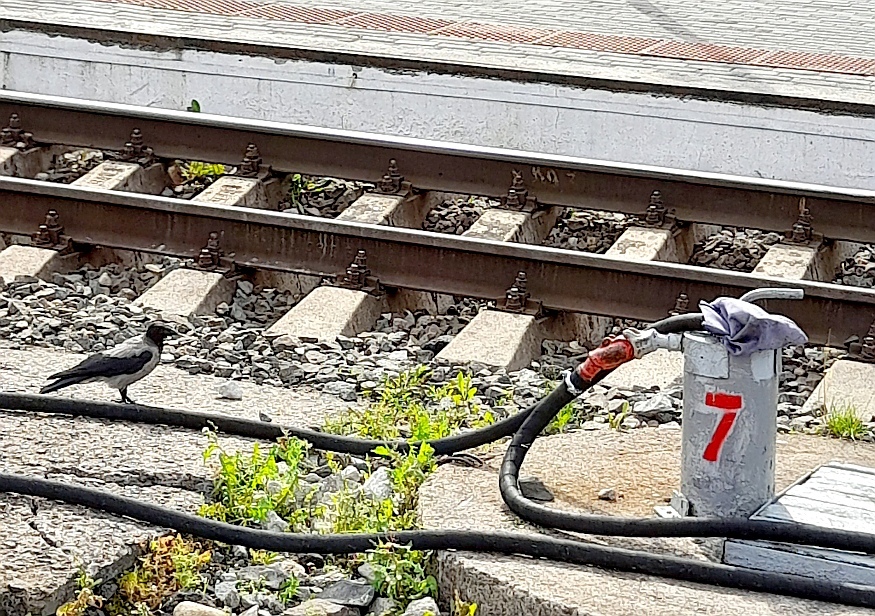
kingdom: Animalia
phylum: Chordata
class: Aves
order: Passeriformes
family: Corvidae
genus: Corvus
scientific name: Corvus cornix
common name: Hooded crow
